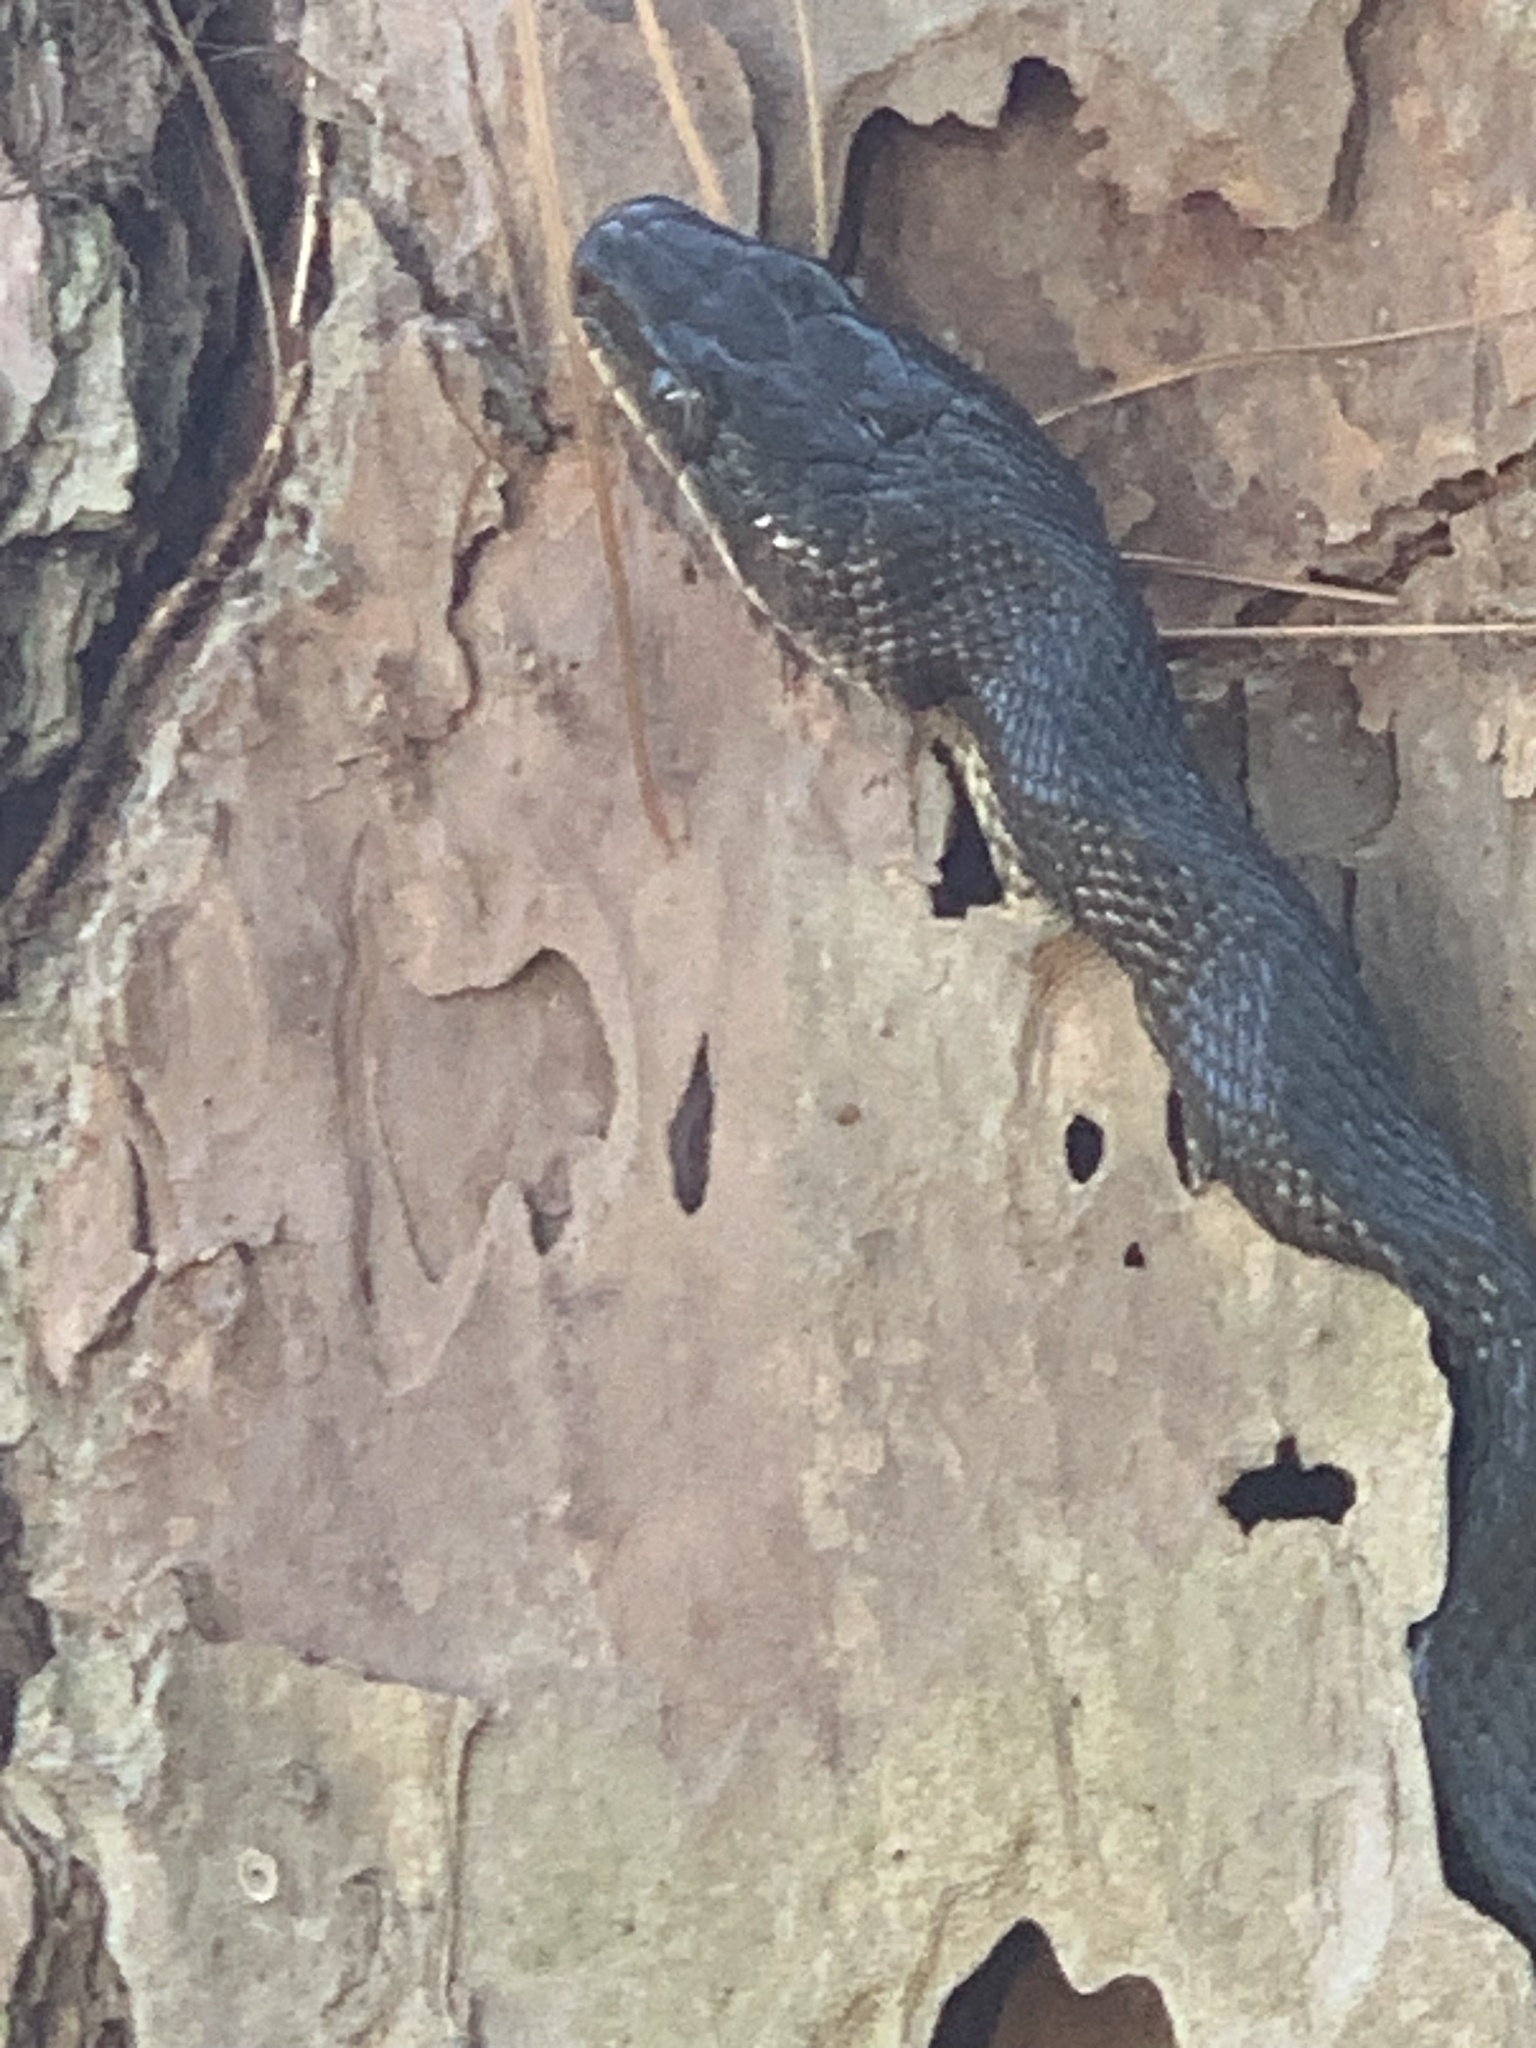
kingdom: Animalia
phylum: Chordata
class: Squamata
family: Colubridae
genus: Pantherophis
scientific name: Pantherophis obsoletus
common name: Black rat snake
